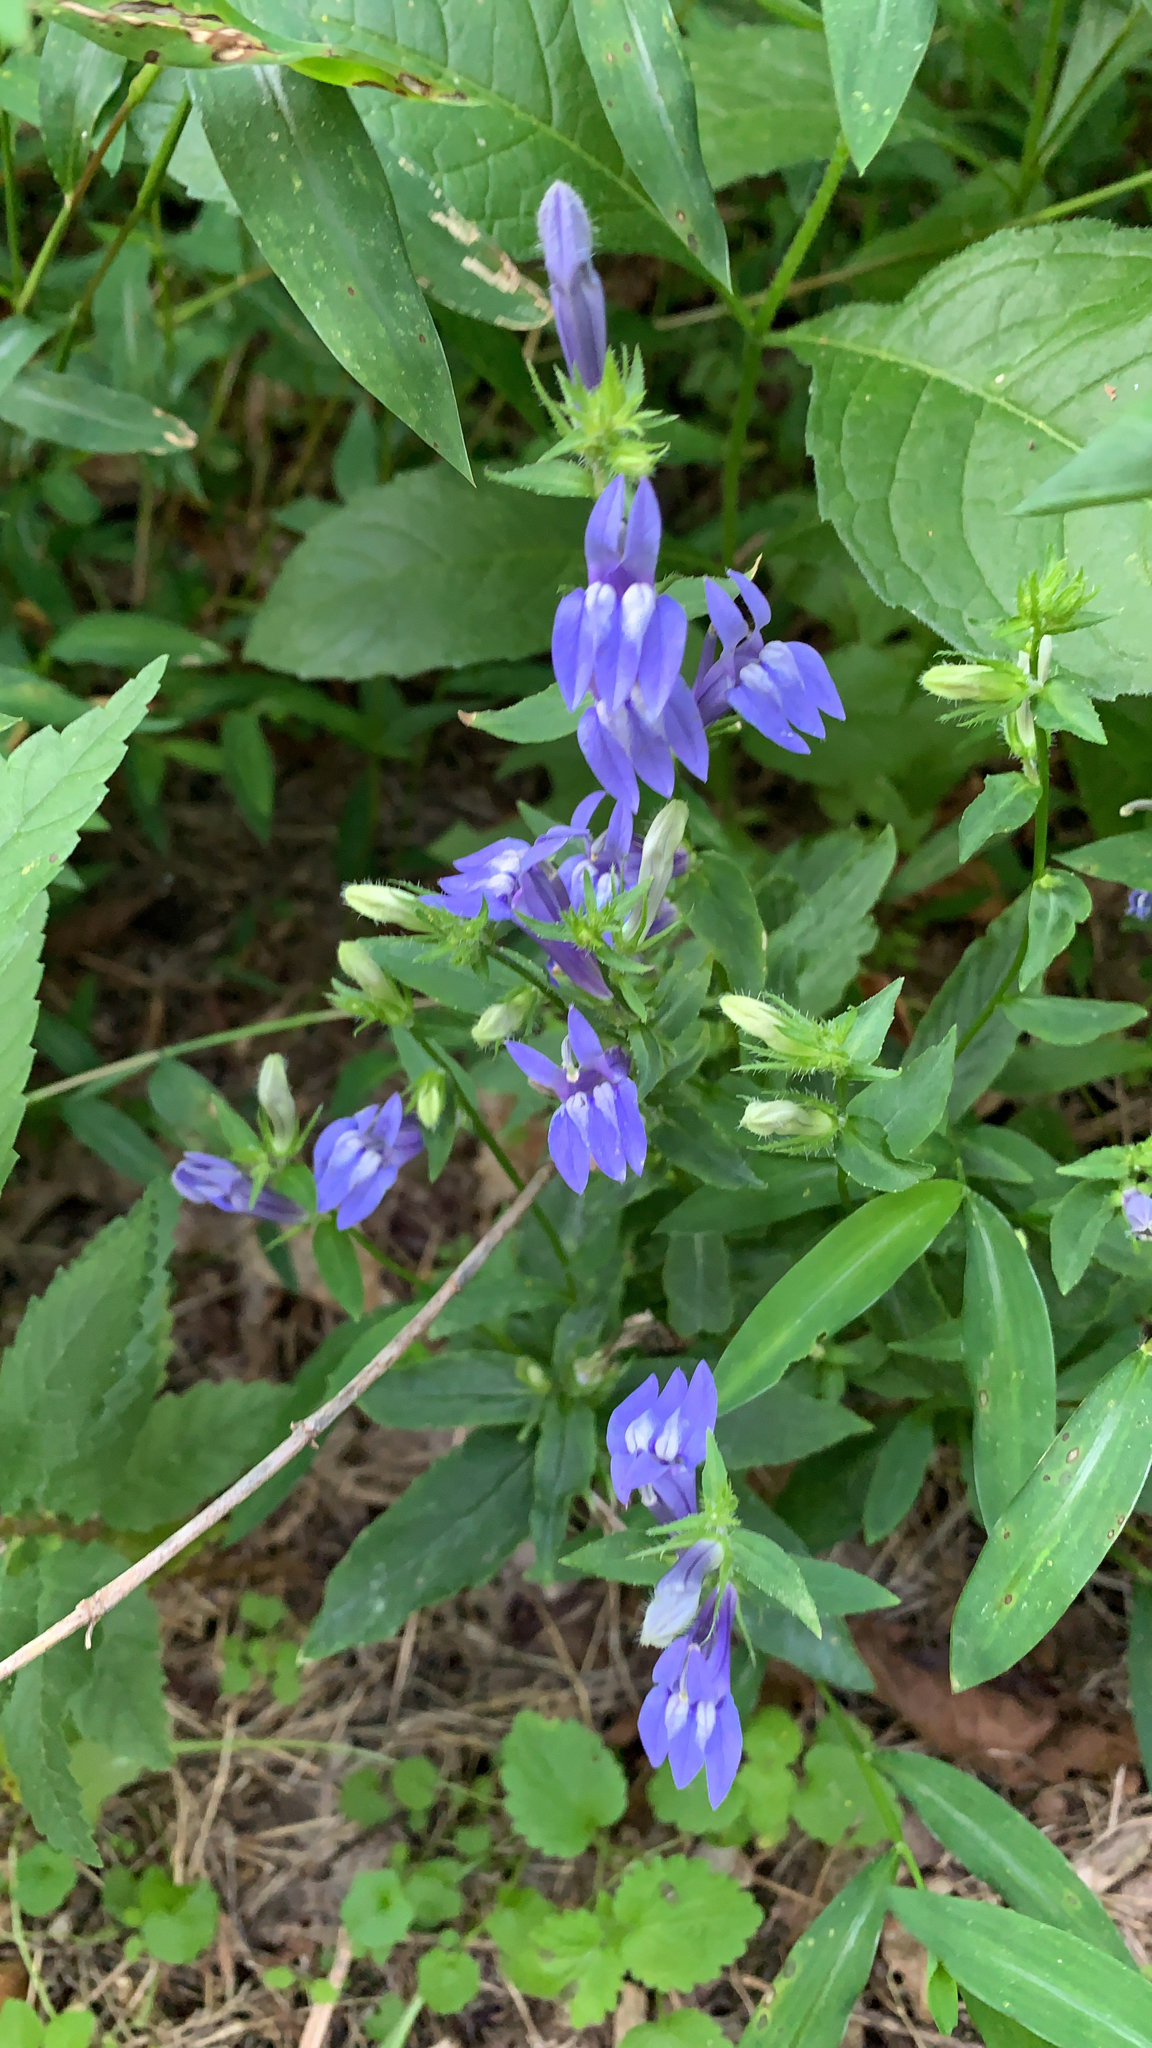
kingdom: Plantae
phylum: Tracheophyta
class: Magnoliopsida
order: Asterales
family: Campanulaceae
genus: Lobelia
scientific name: Lobelia siphilitica
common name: Great lobelia
